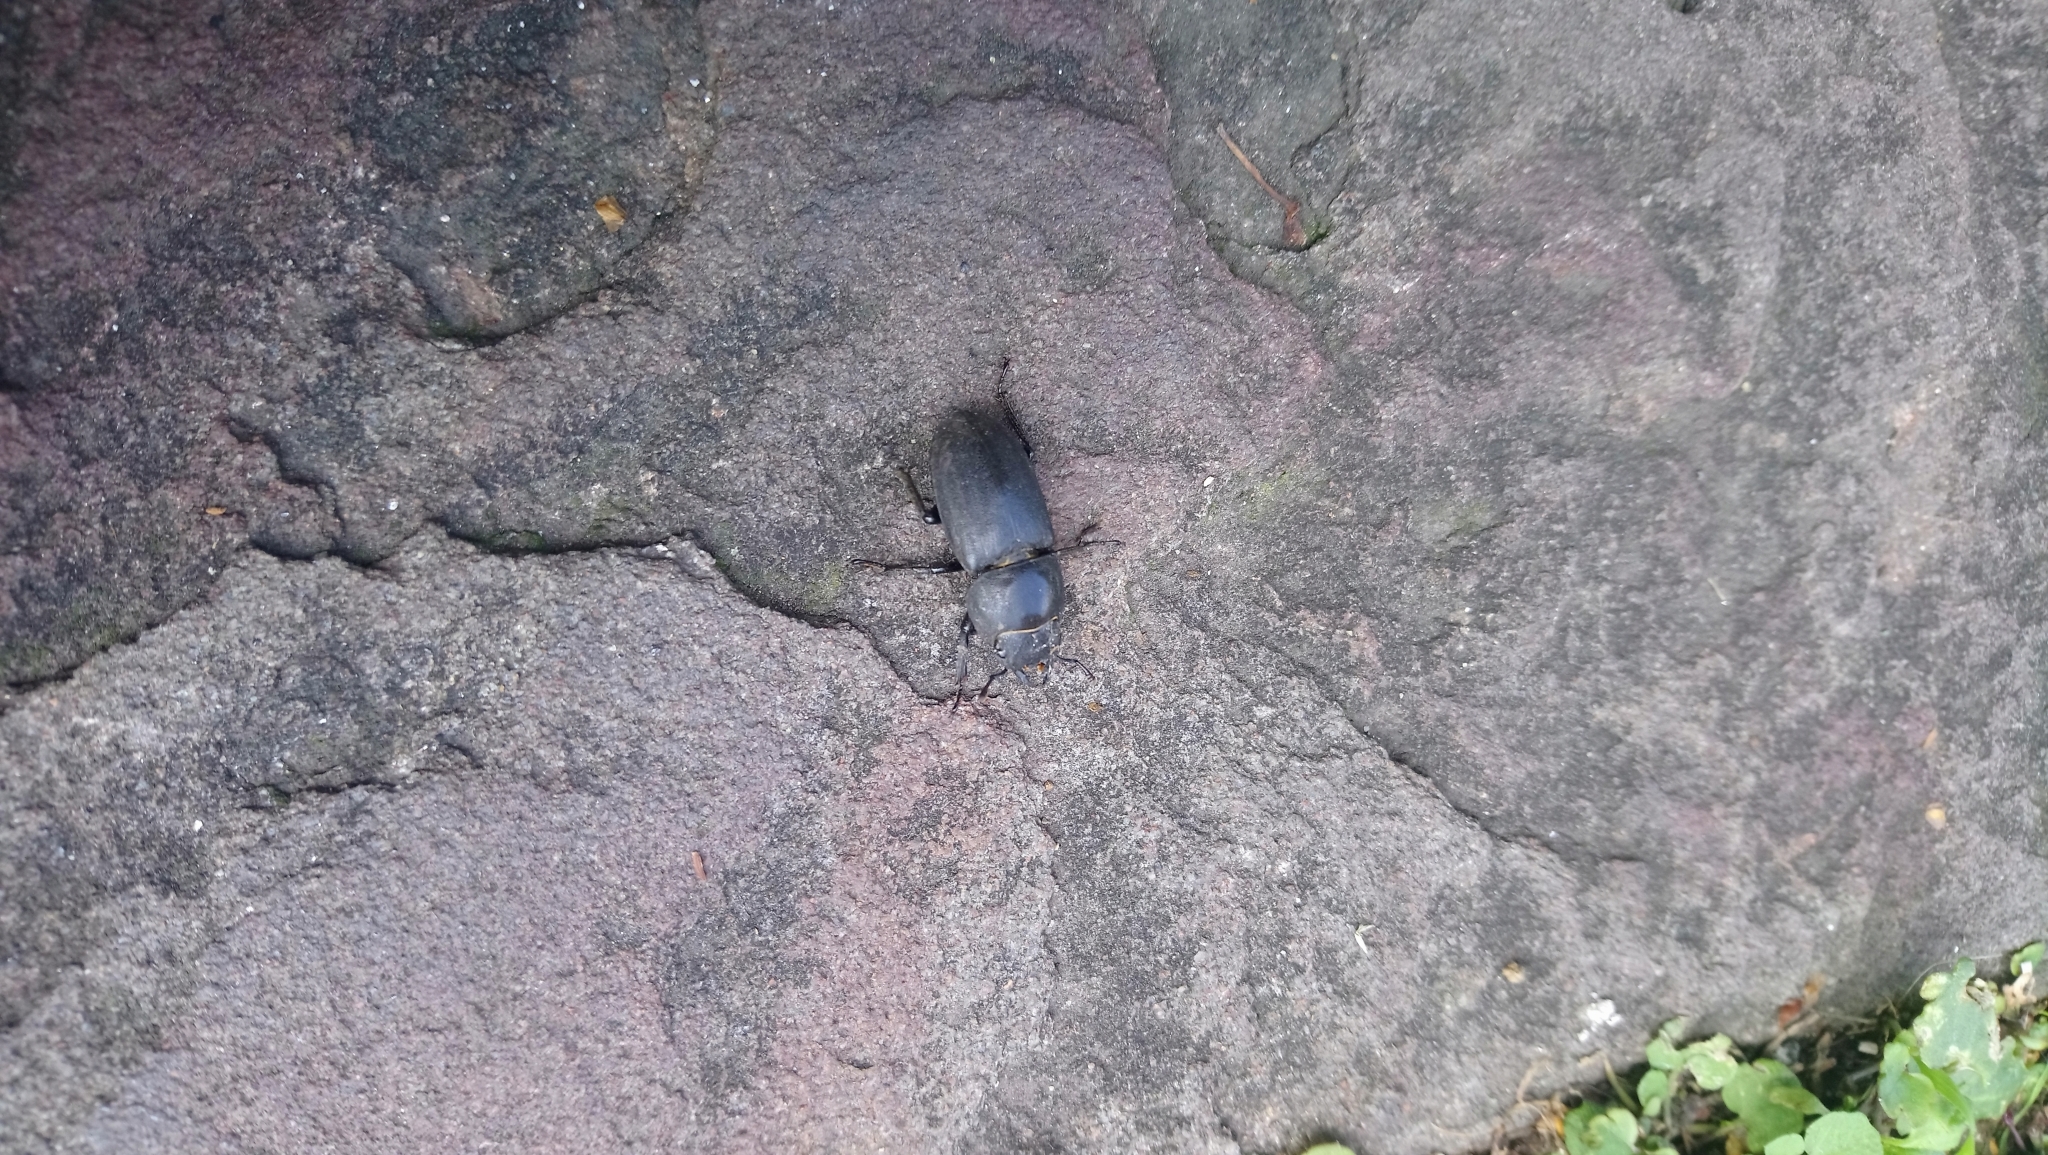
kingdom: Animalia
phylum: Arthropoda
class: Insecta
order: Coleoptera
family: Lucanidae
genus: Dorcus
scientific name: Dorcus parallelipipedus
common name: Lesser stag beetle
